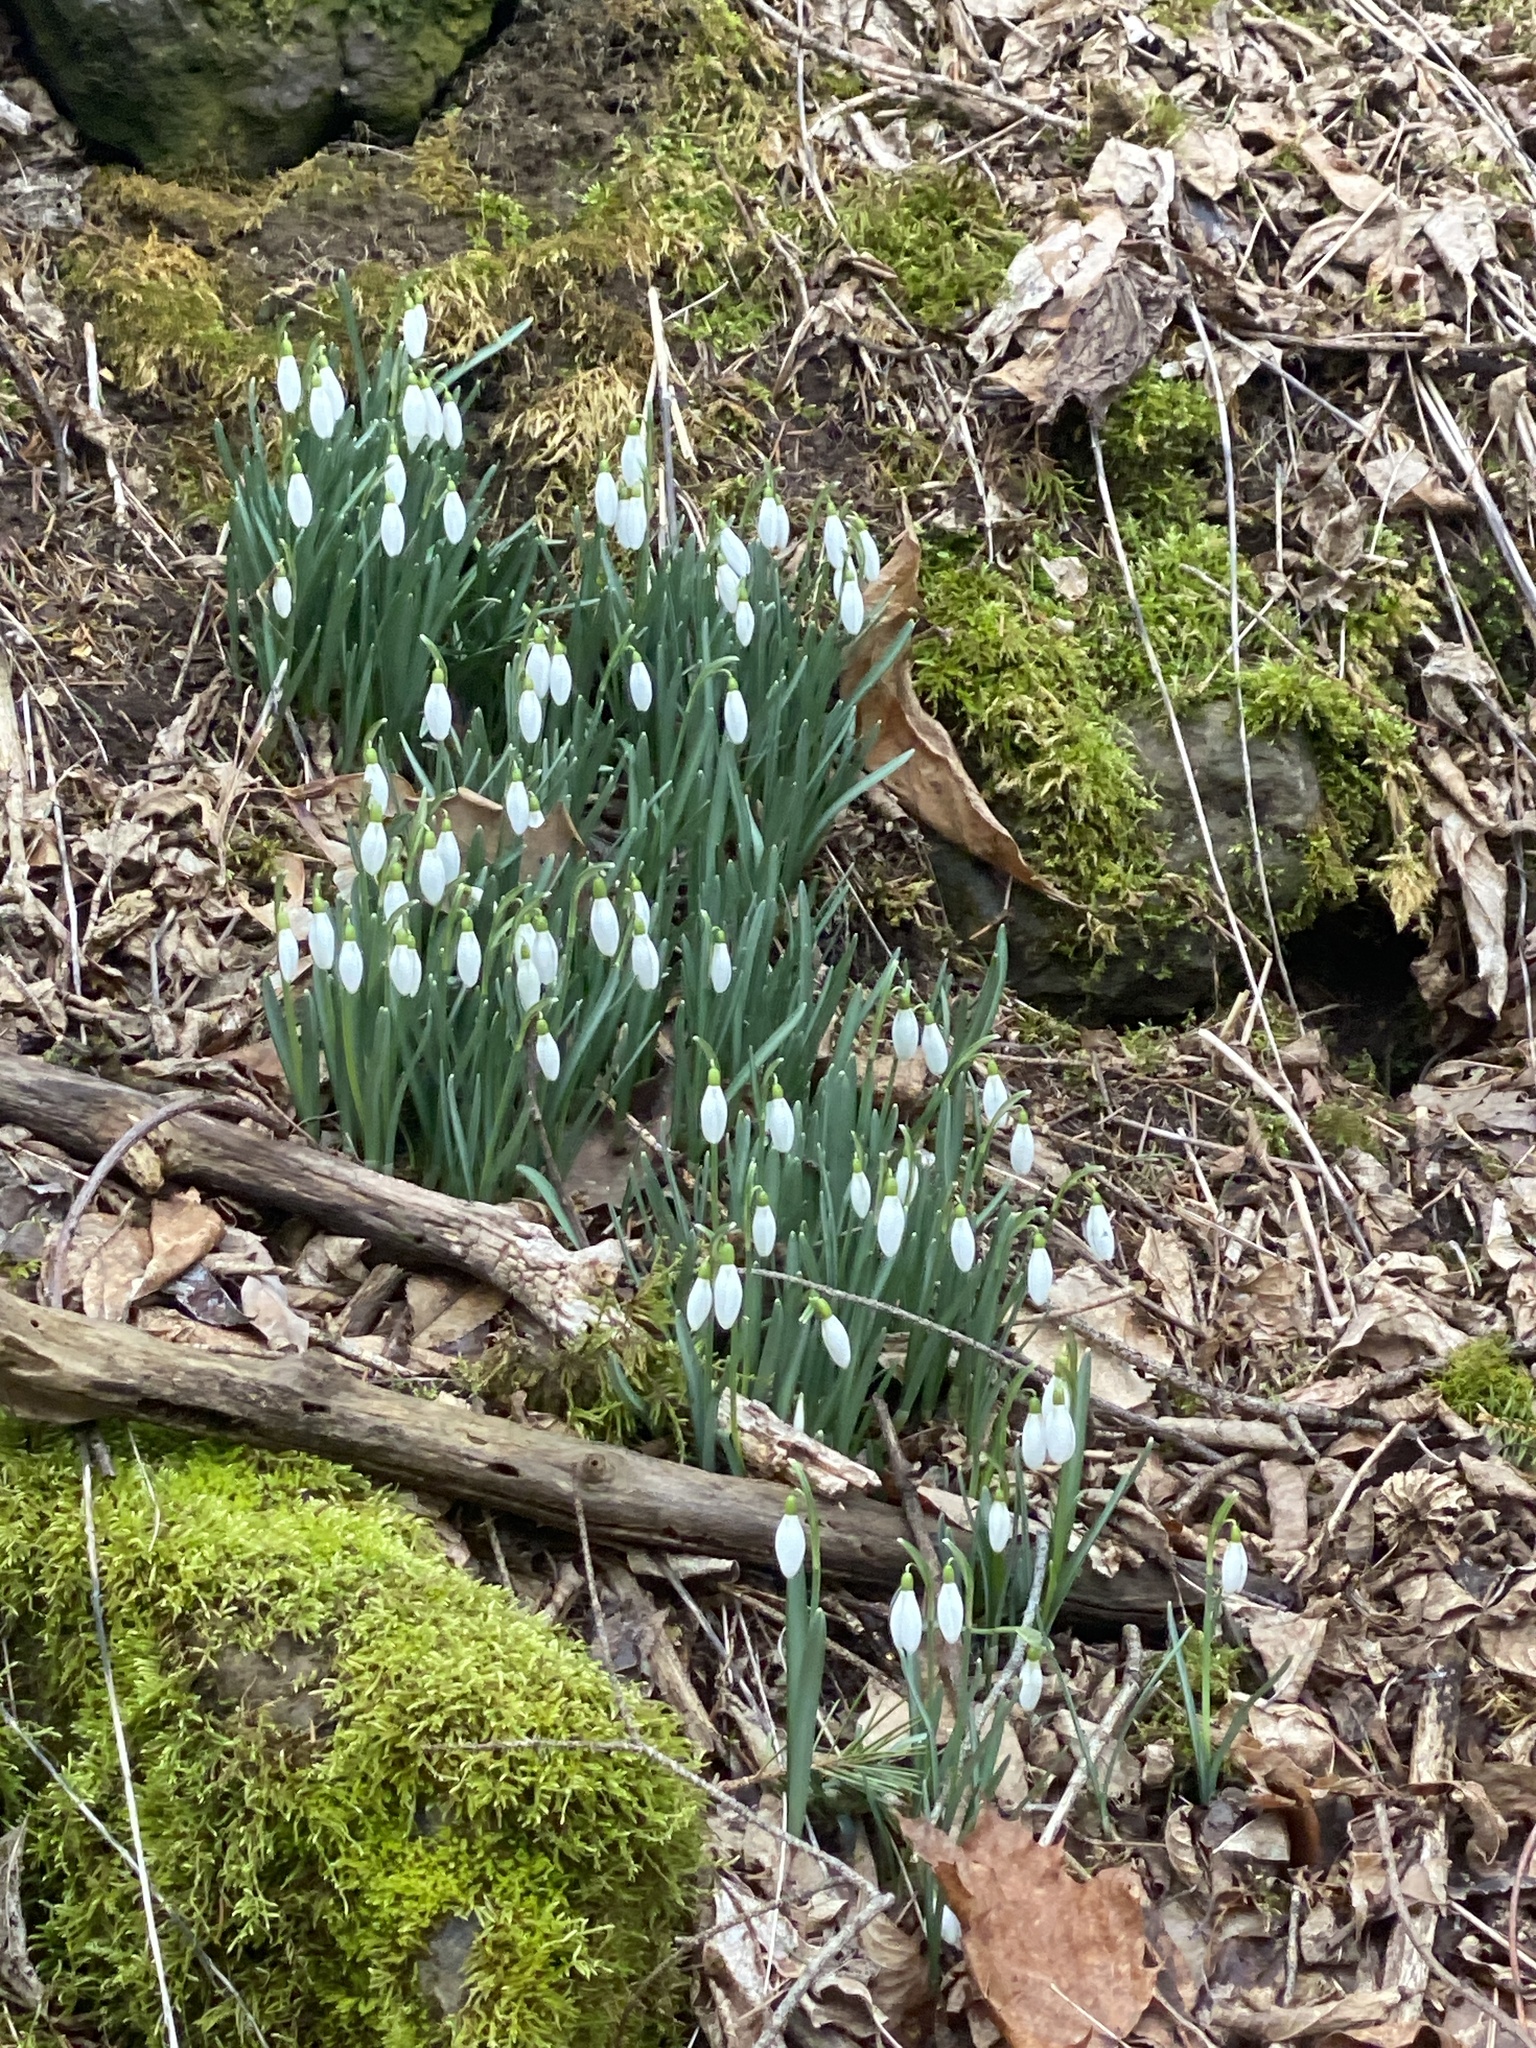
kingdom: Plantae
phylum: Tracheophyta
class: Liliopsida
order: Asparagales
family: Amaryllidaceae
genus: Galanthus
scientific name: Galanthus nivalis
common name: Snowdrop
